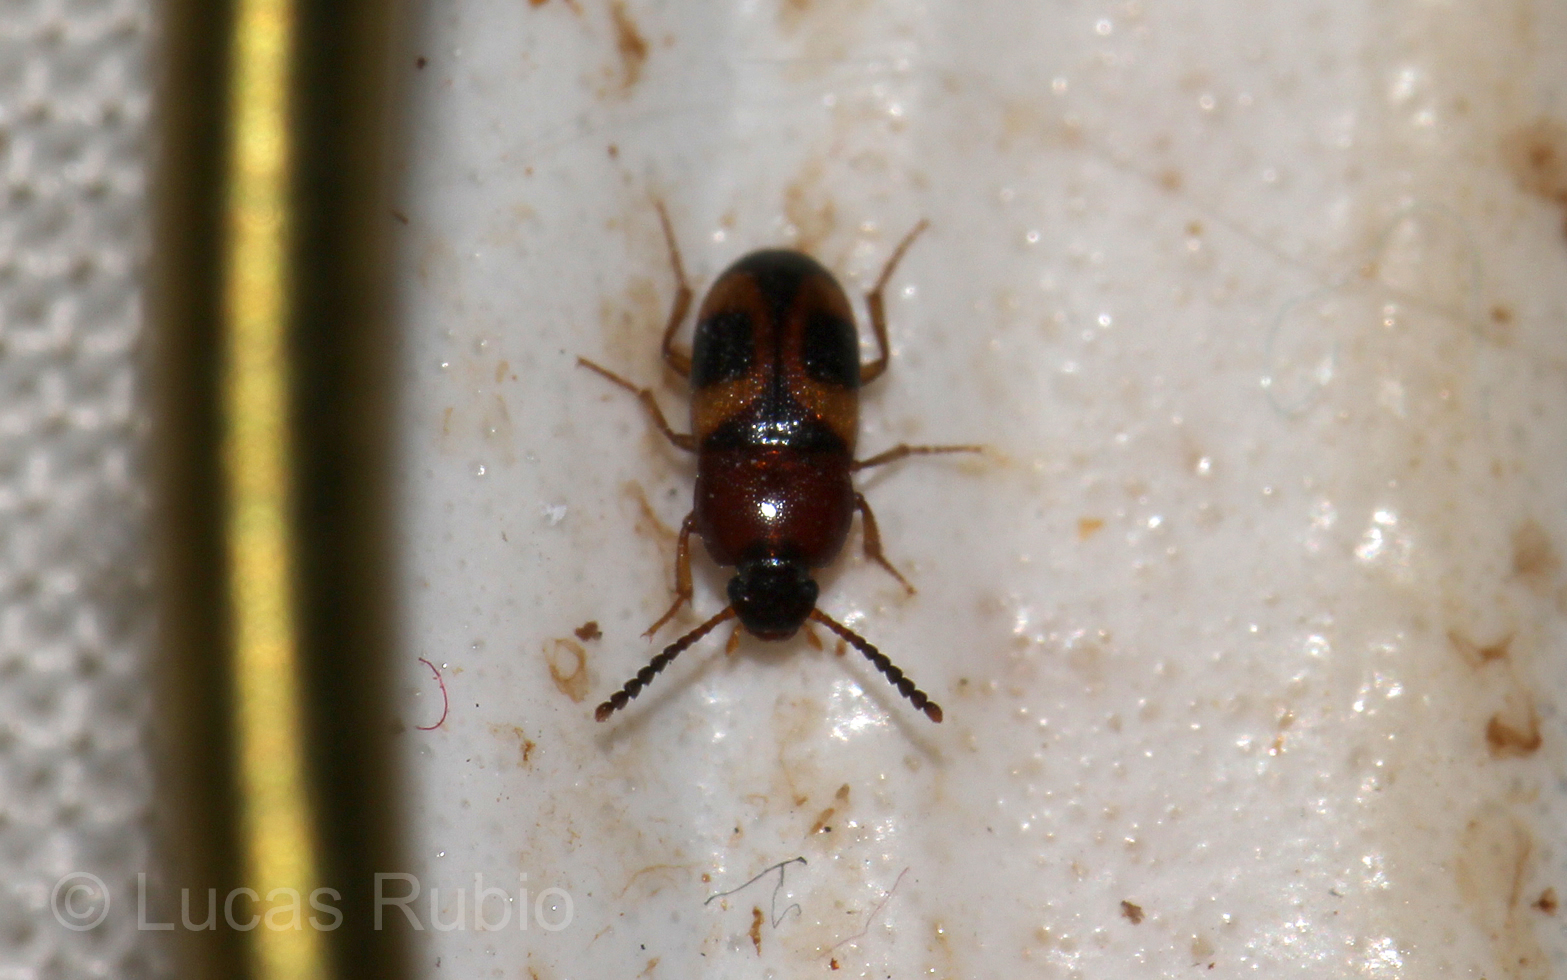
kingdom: Animalia
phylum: Arthropoda
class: Insecta
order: Coleoptera
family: Tenebrionidae
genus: Poecilocrypticus
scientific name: Poecilocrypticus formicophilus
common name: Darkling beetle
